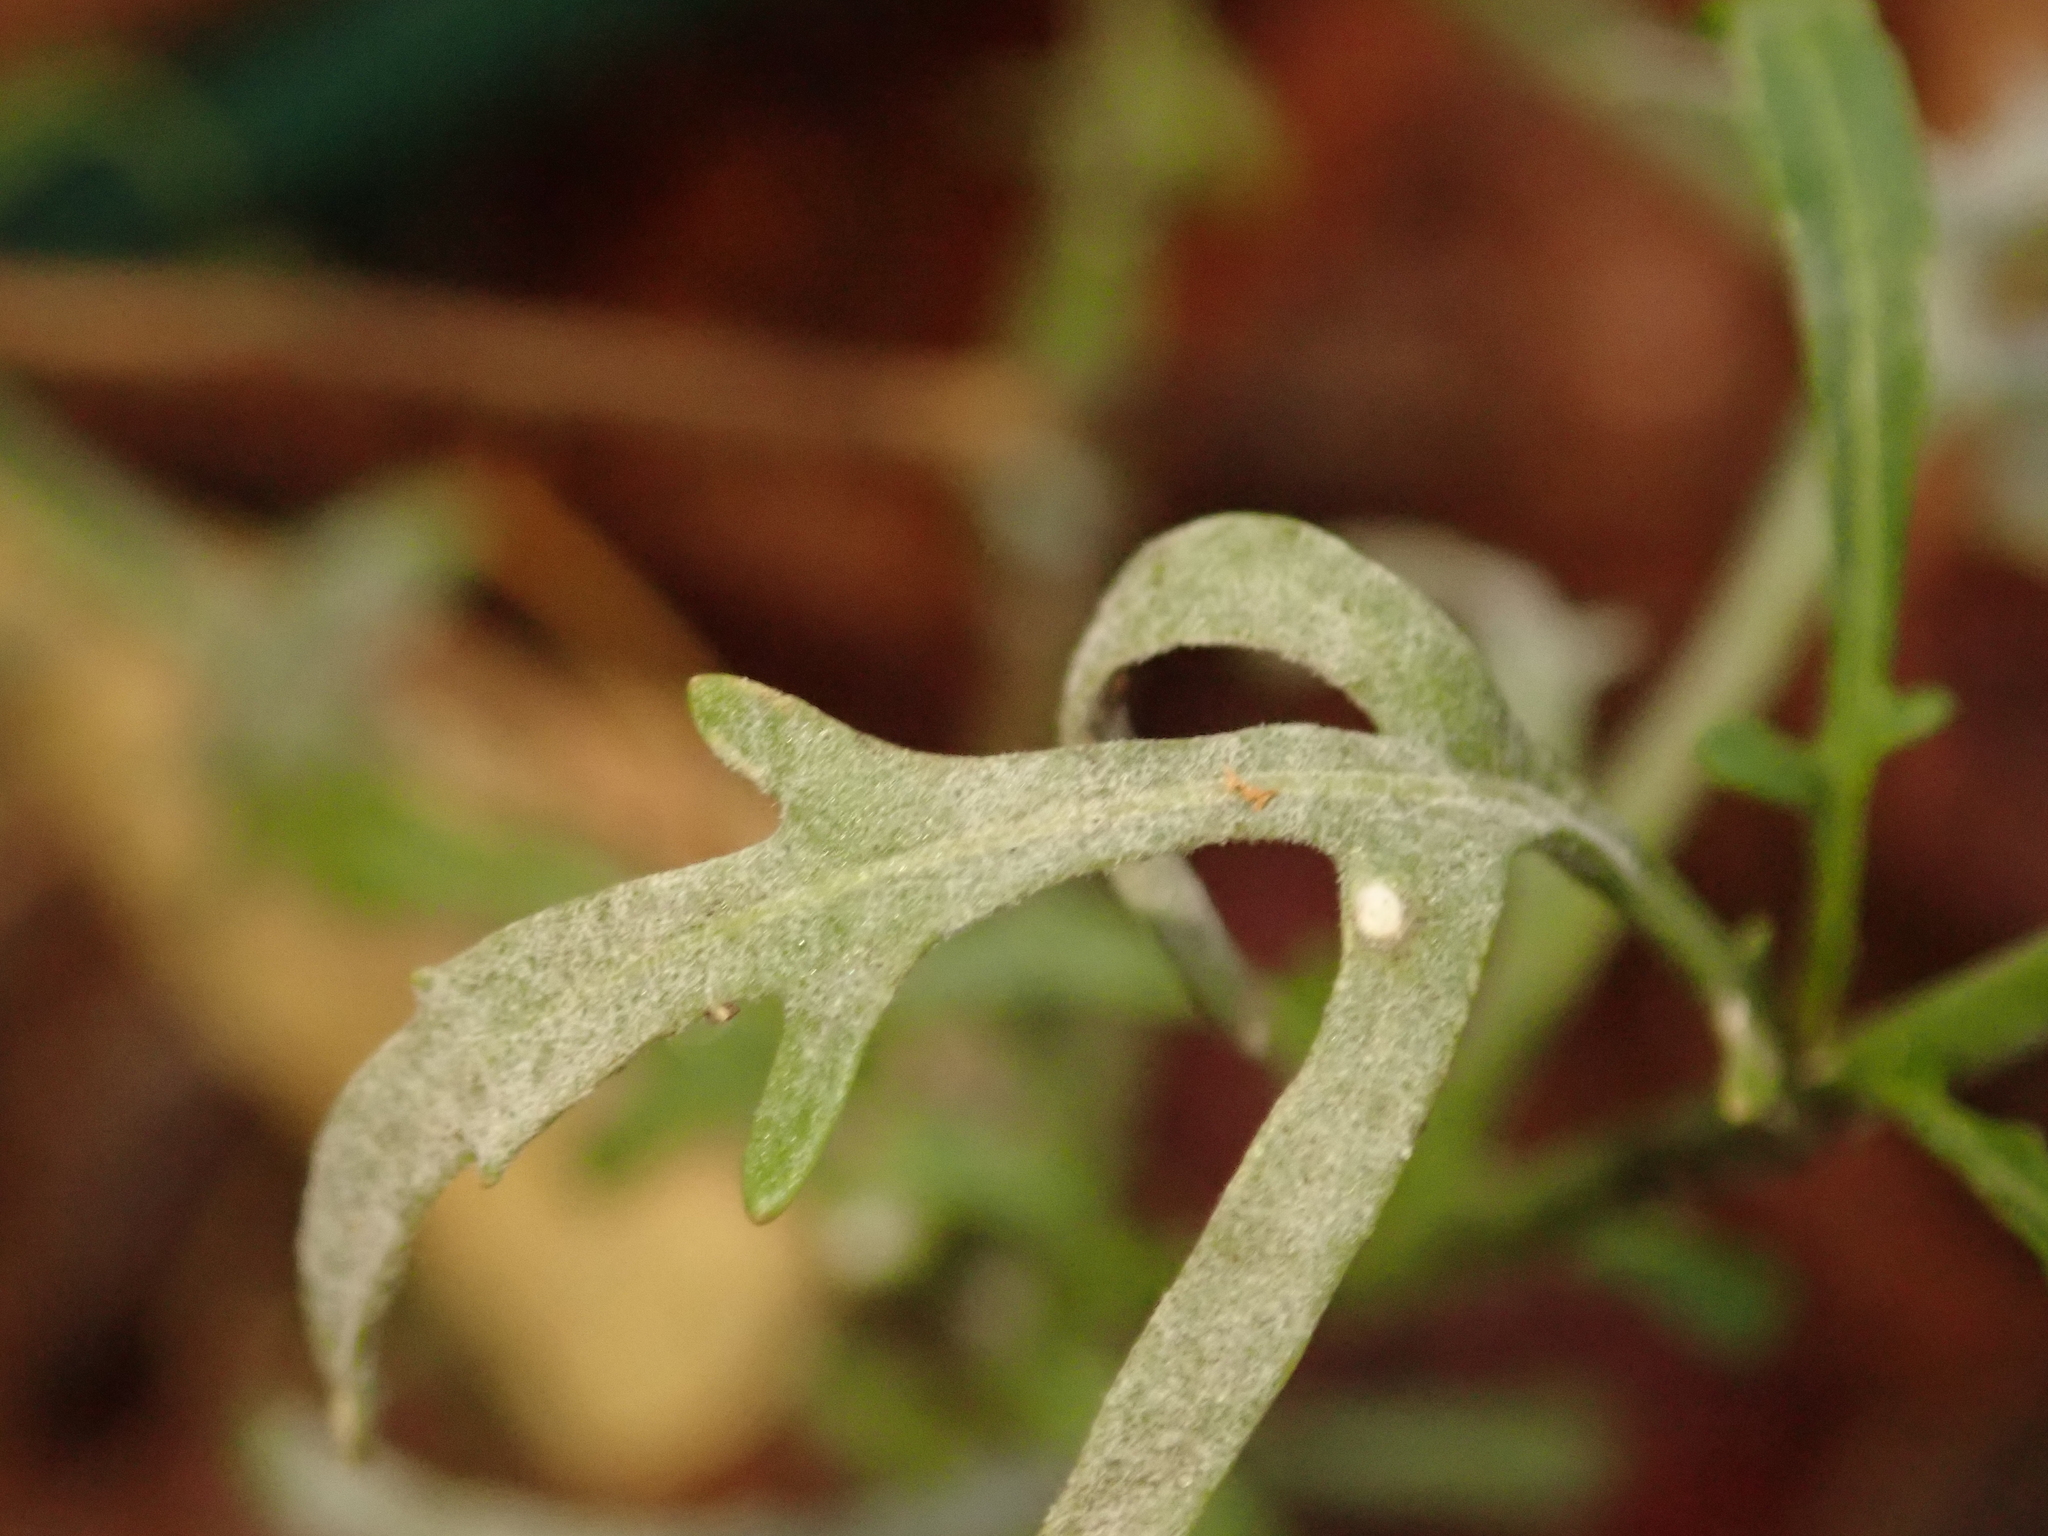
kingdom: Fungi
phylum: Ascomycota
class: Leotiomycetes
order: Helotiales
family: Erysiphaceae
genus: Erysiphe
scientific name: Erysiphe cruciferarum
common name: Brassica powdery mildew
